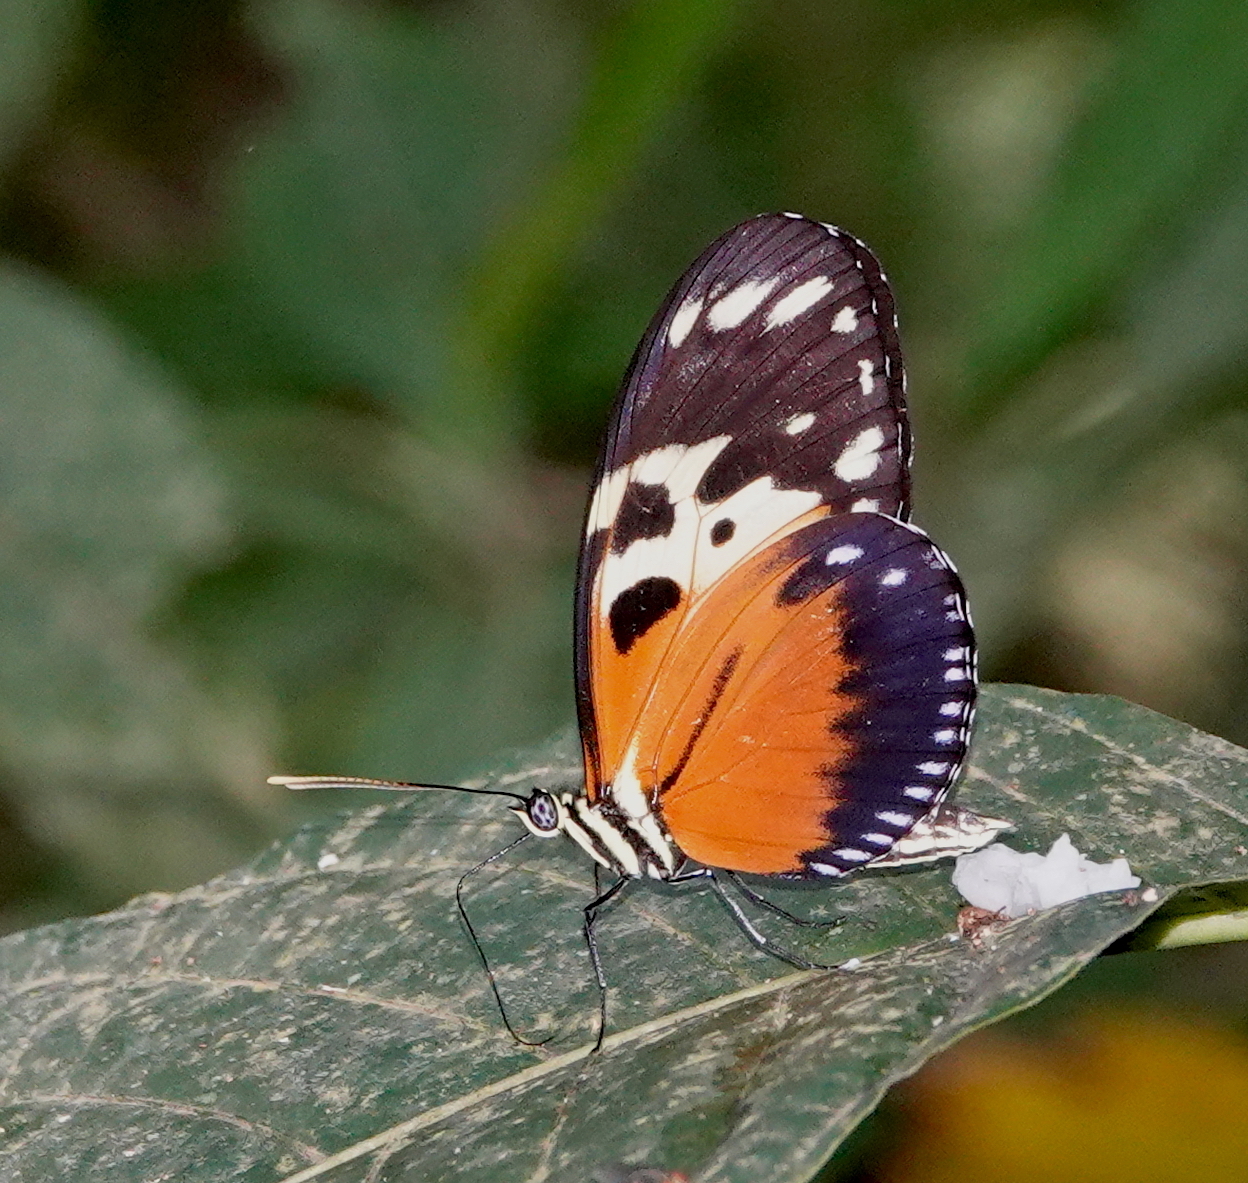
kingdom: Animalia
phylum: Arthropoda
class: Insecta
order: Lepidoptera
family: Nymphalidae
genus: Heliconius
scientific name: Heliconius hecale
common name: Tiger longwing
